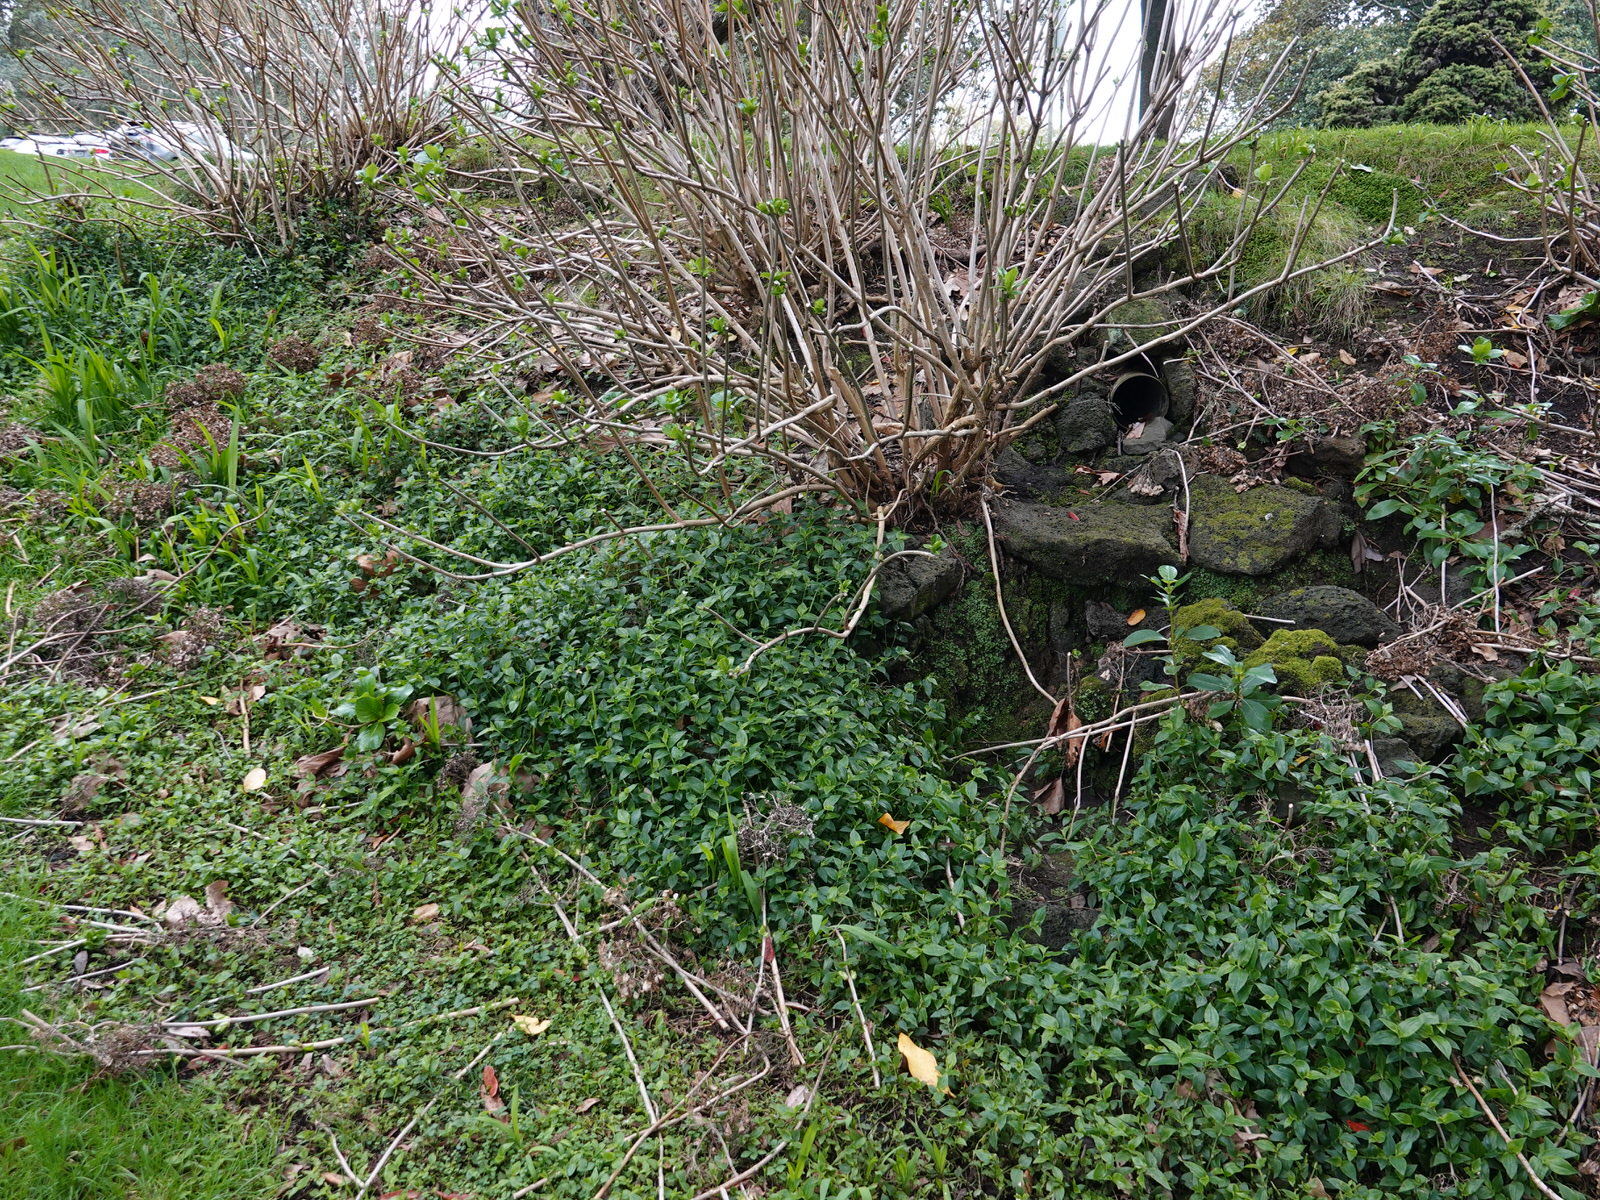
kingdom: Plantae
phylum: Tracheophyta
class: Liliopsida
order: Commelinales
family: Commelinaceae
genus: Tradescantia
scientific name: Tradescantia fluminensis
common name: Wandering-jew
